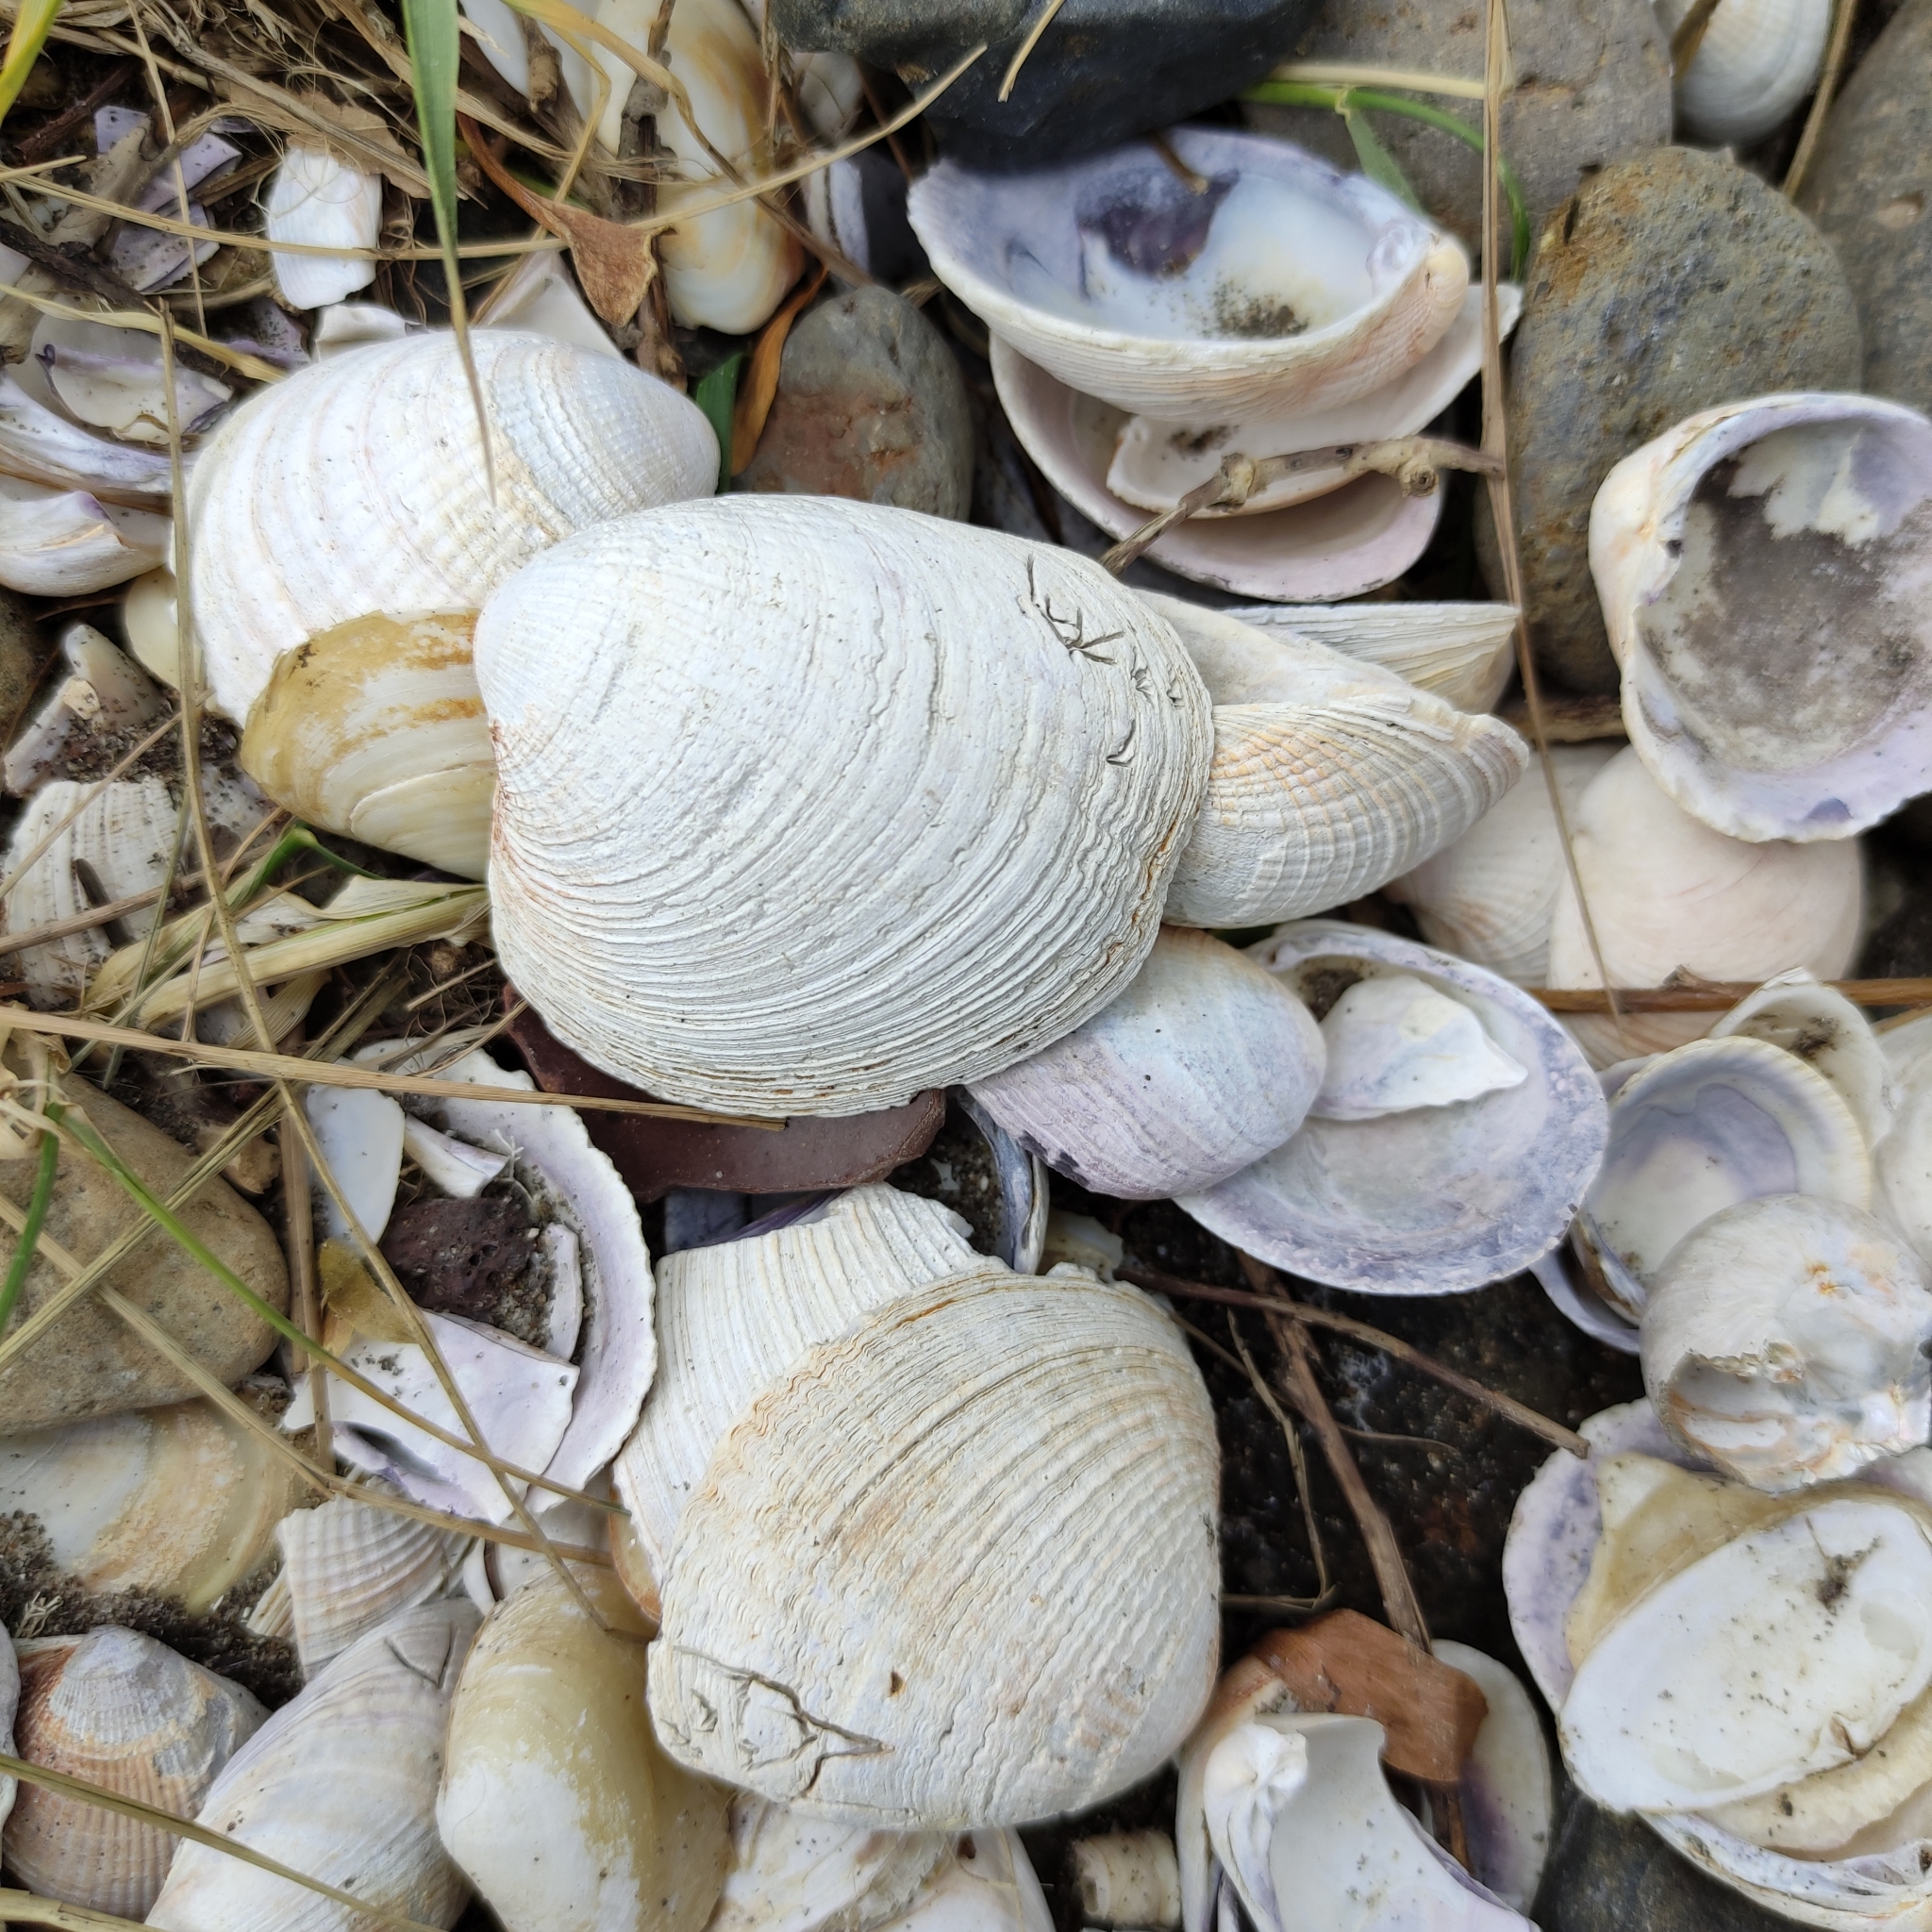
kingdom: Animalia
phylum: Mollusca
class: Bivalvia
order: Venerida
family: Veneridae
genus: Austrovenus
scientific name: Austrovenus stutchburyi
